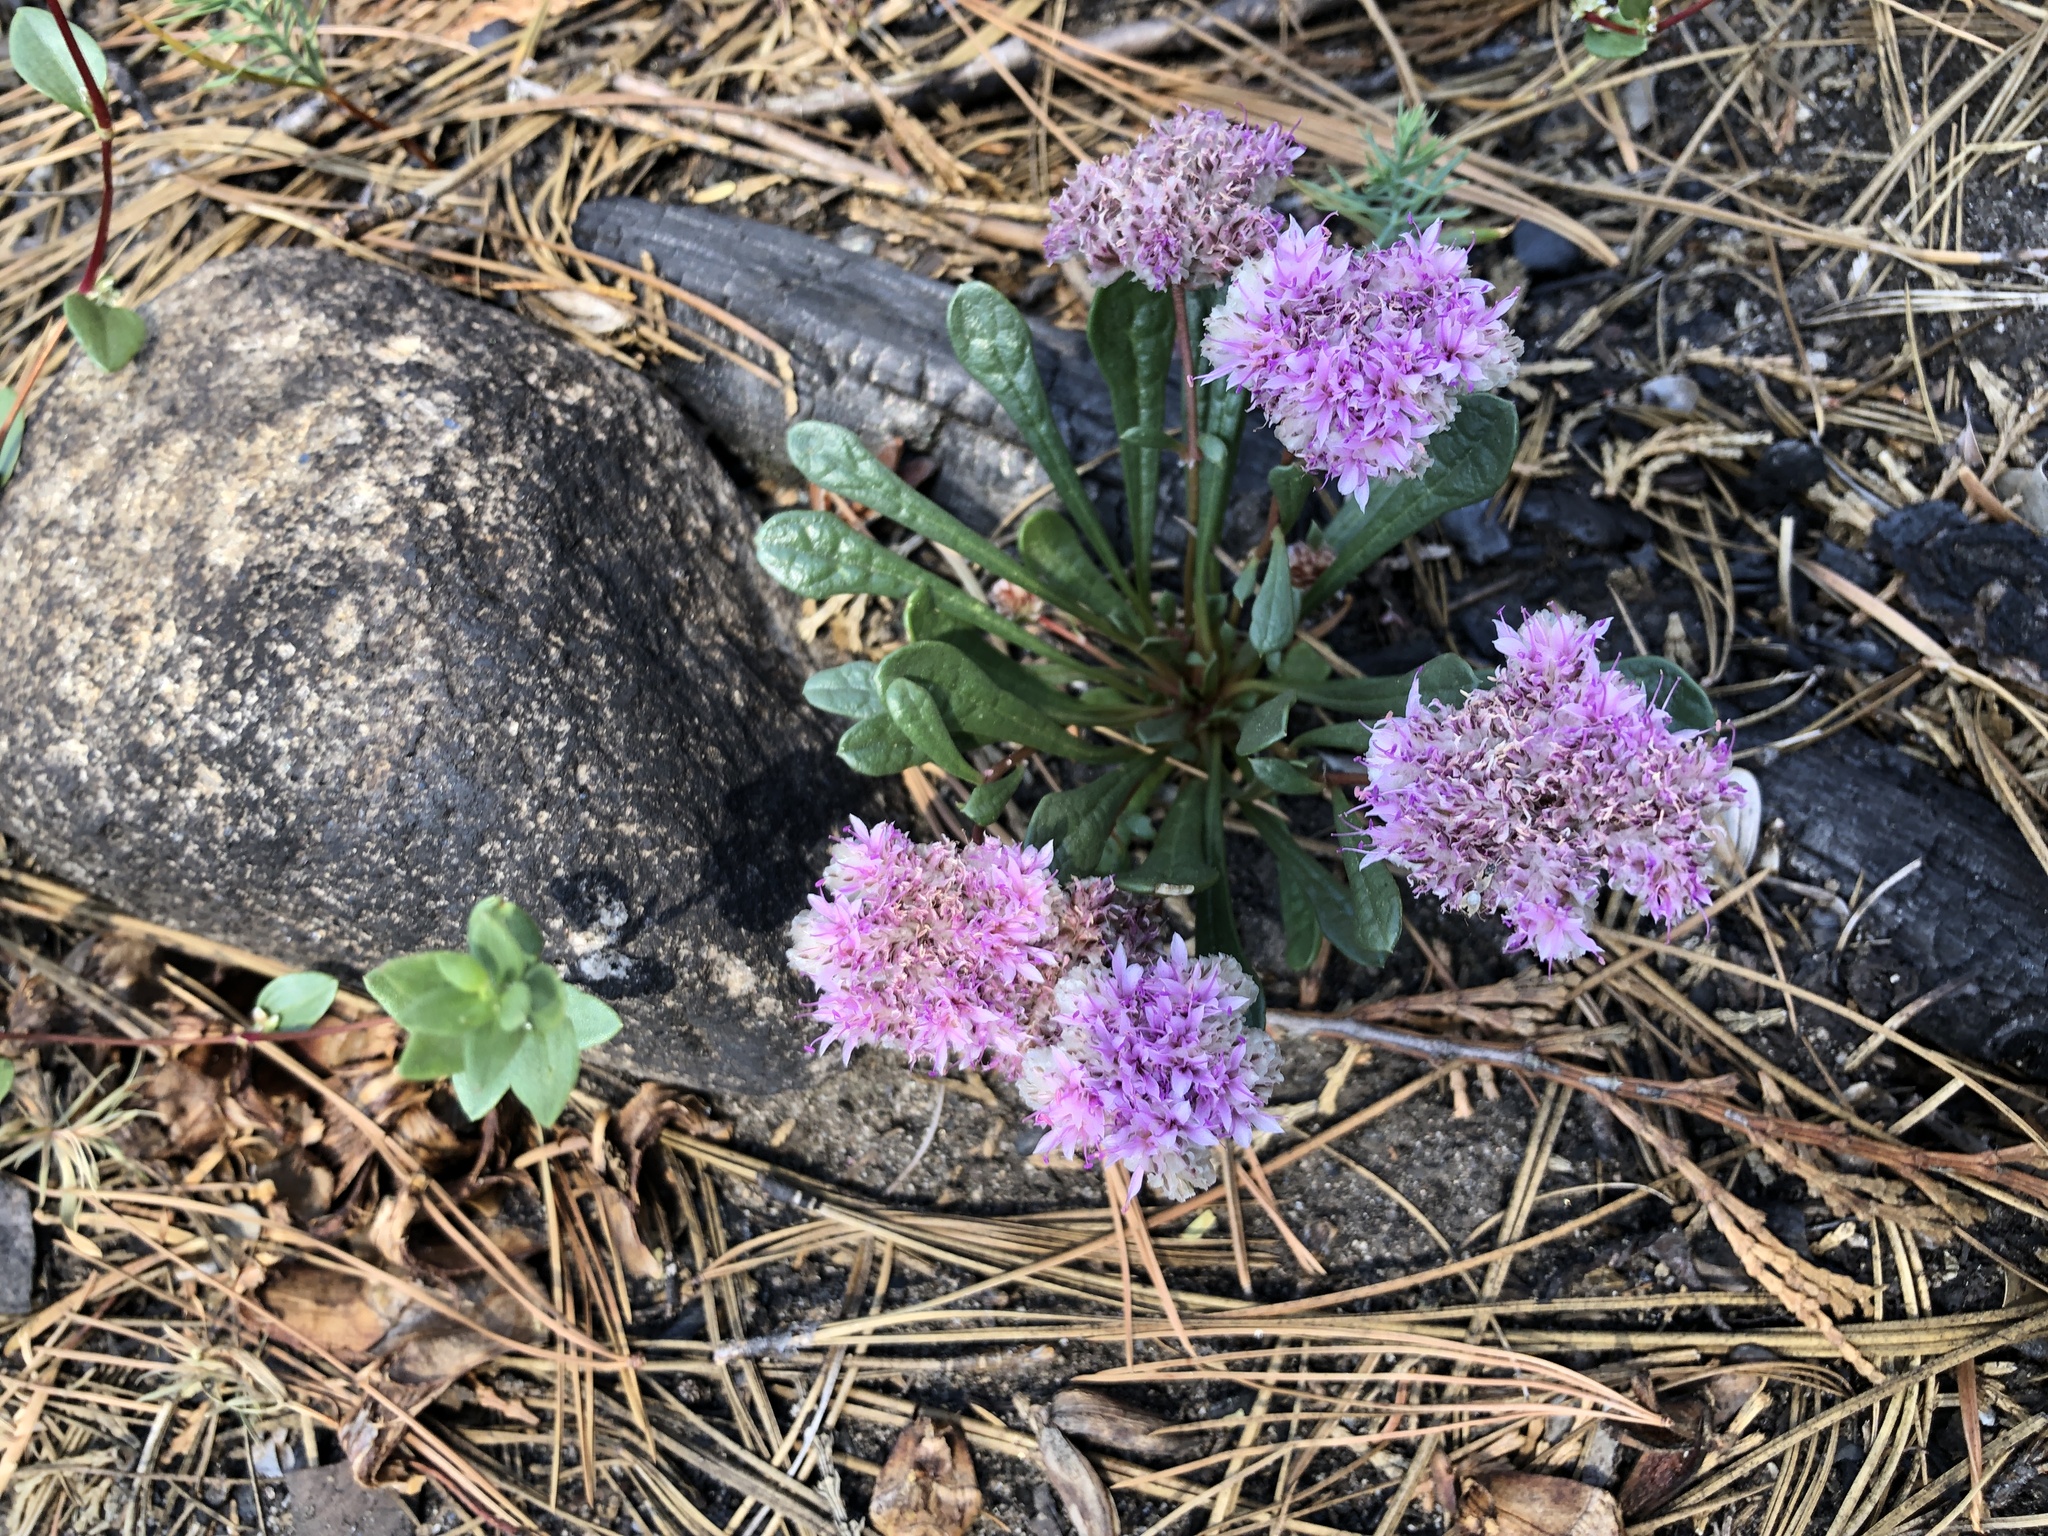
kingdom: Plantae
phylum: Tracheophyta
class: Magnoliopsida
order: Caryophyllales
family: Montiaceae
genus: Calyptridium
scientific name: Calyptridium monospermum
